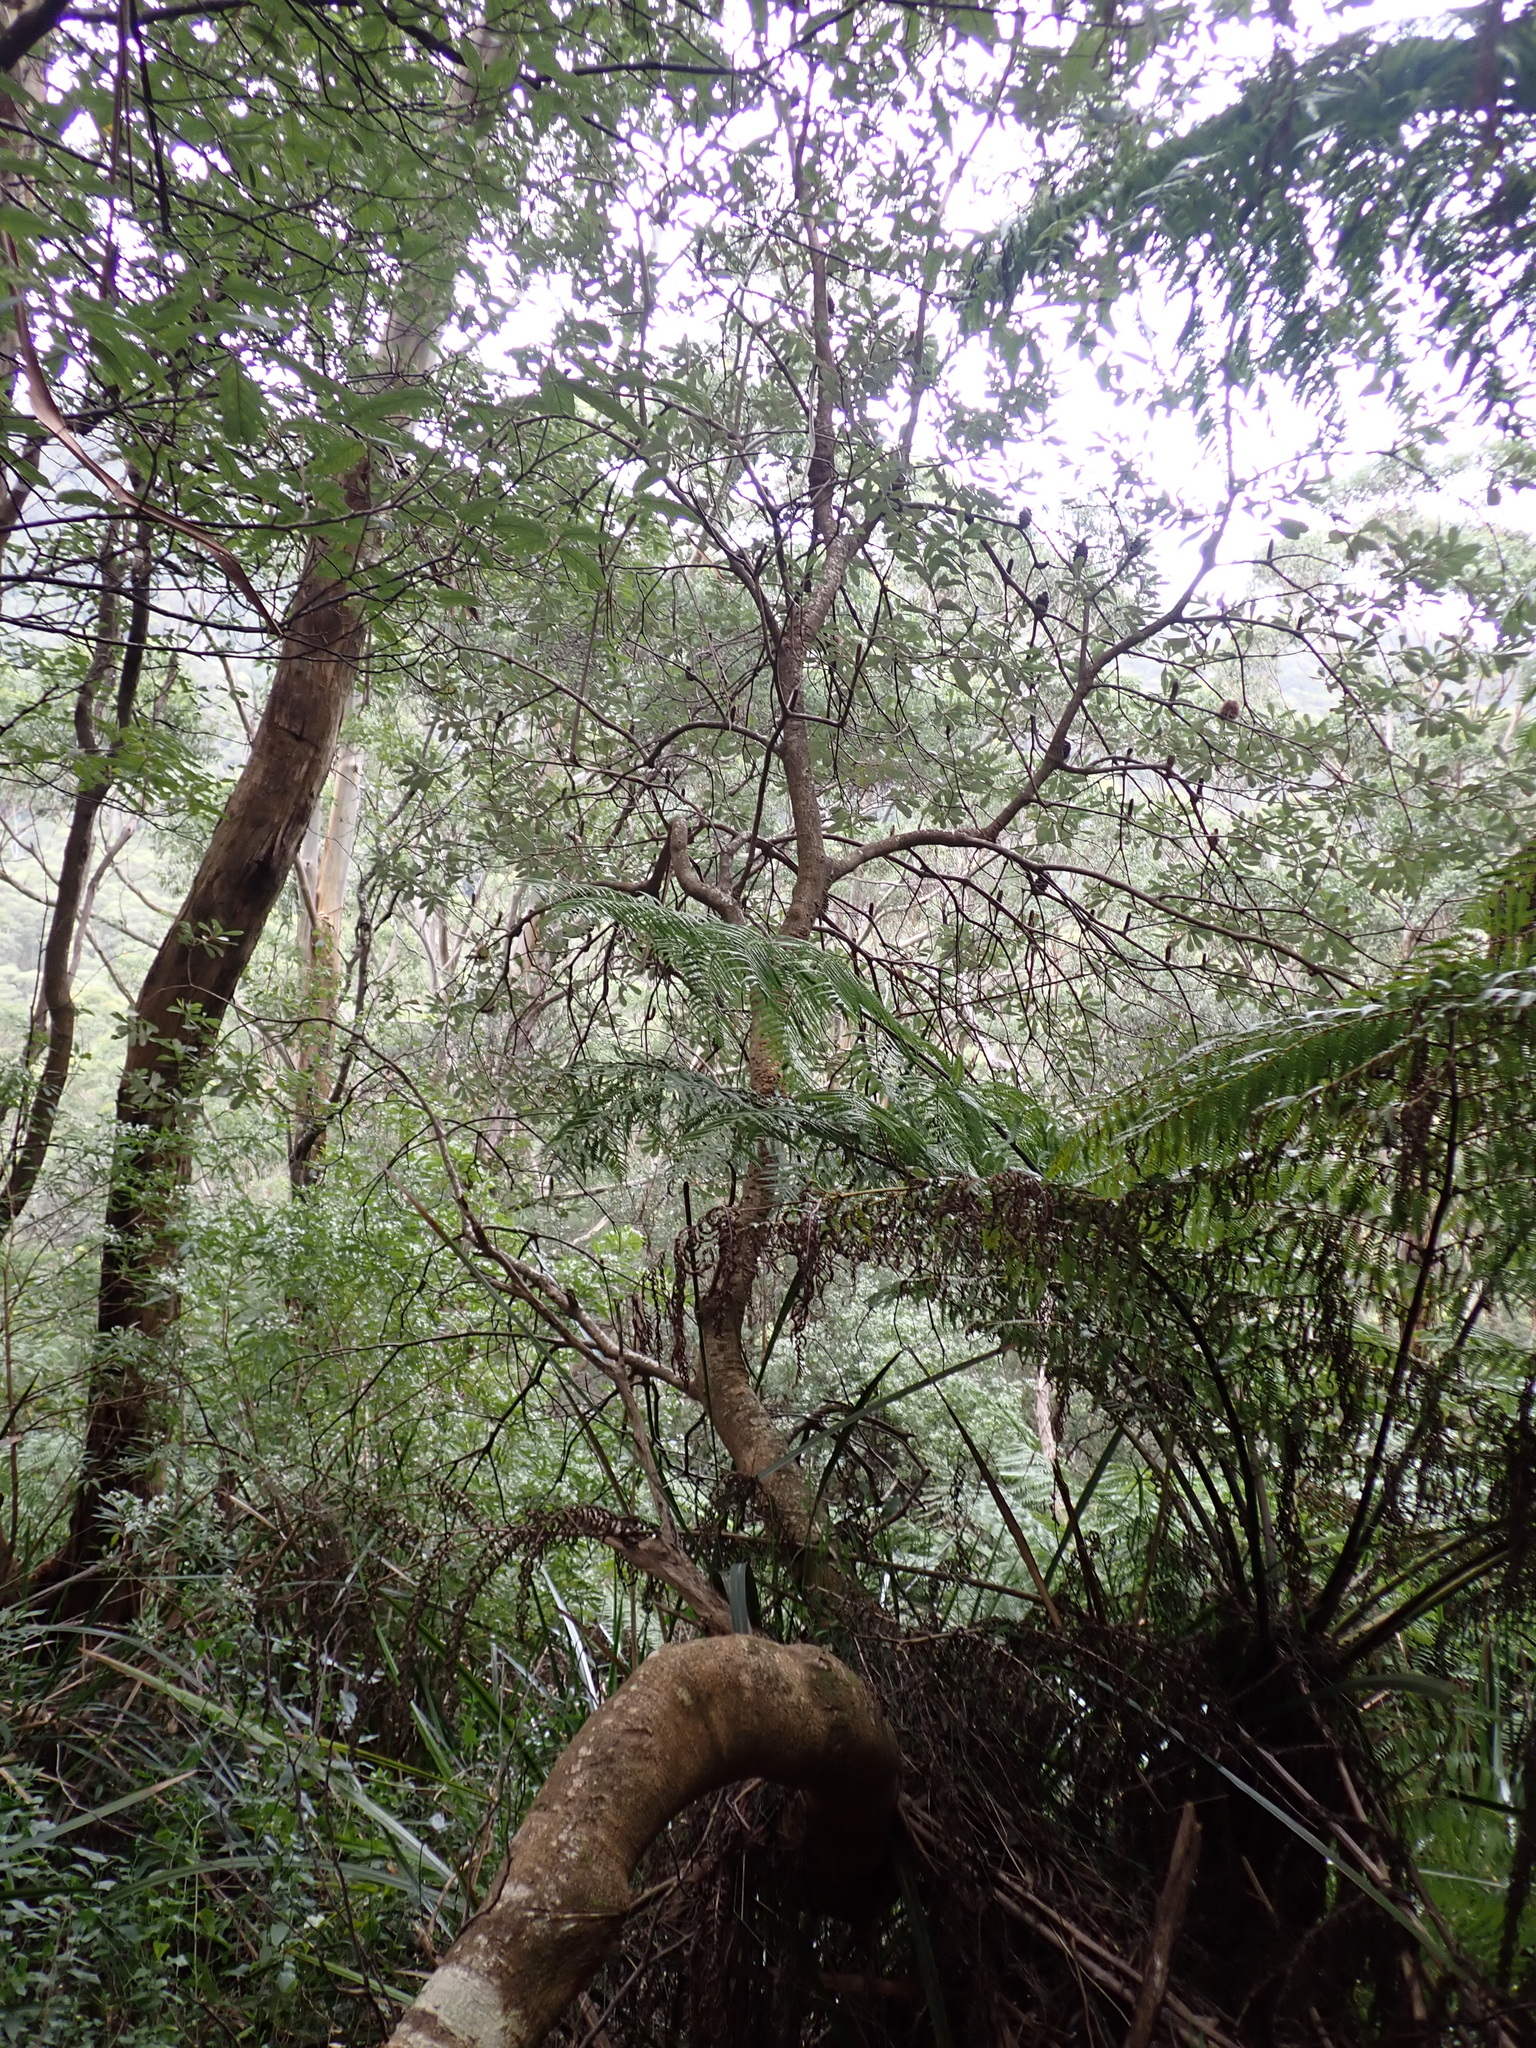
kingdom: Plantae
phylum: Tracheophyta
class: Magnoliopsida
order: Proteales
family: Proteaceae
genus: Banksia
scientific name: Banksia saxicola
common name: Grampians banksia
